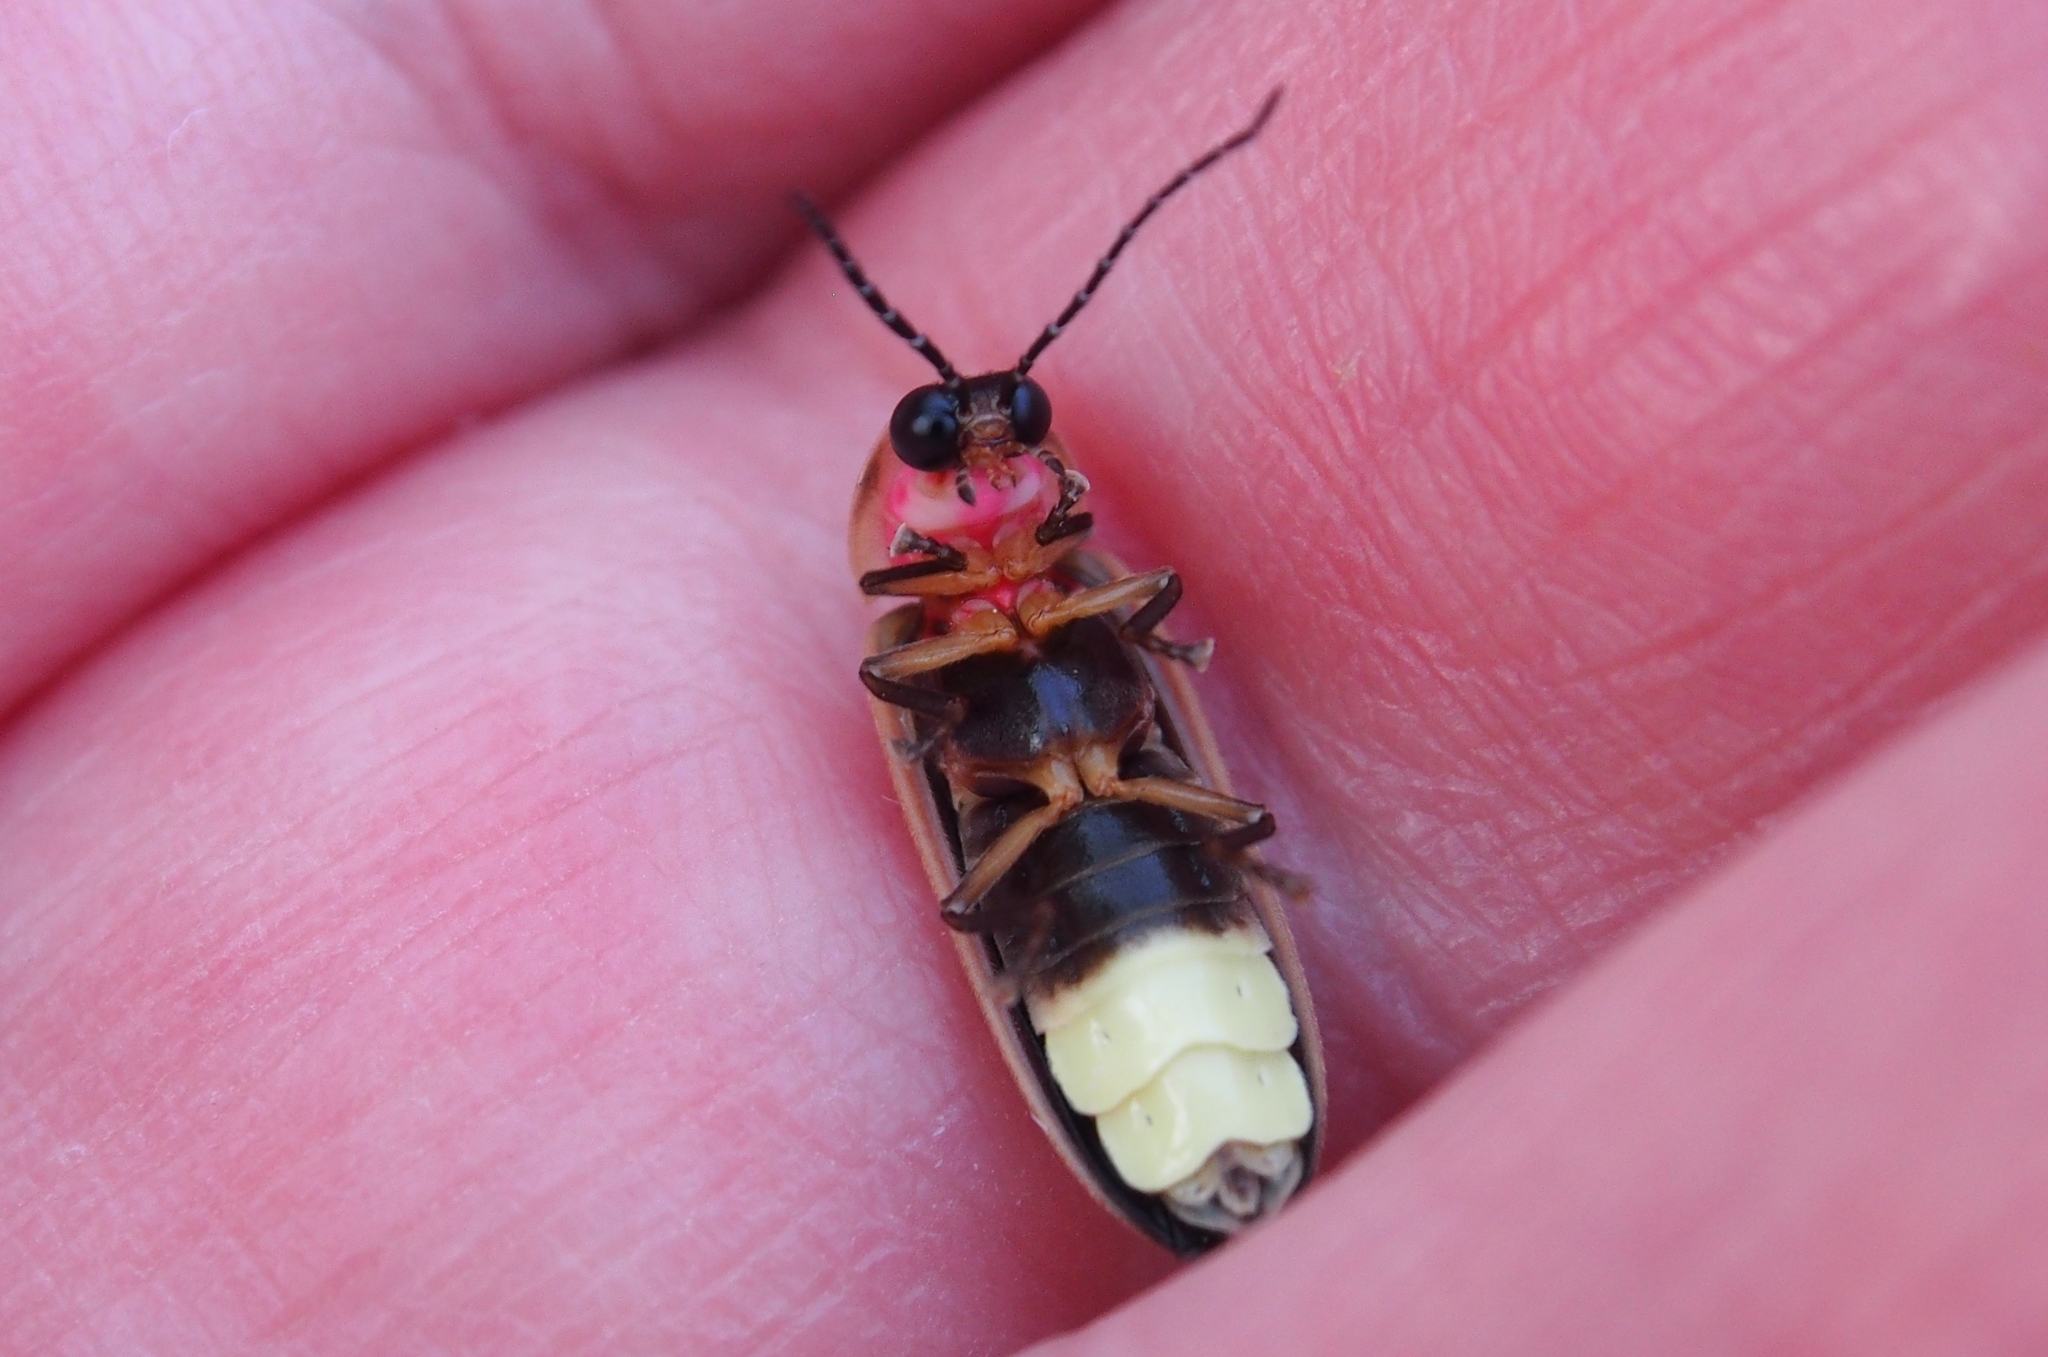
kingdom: Animalia
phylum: Arthropoda
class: Insecta
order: Coleoptera
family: Lampyridae
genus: Photinus
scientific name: Photinus pyralis
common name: Big dipper firefly
